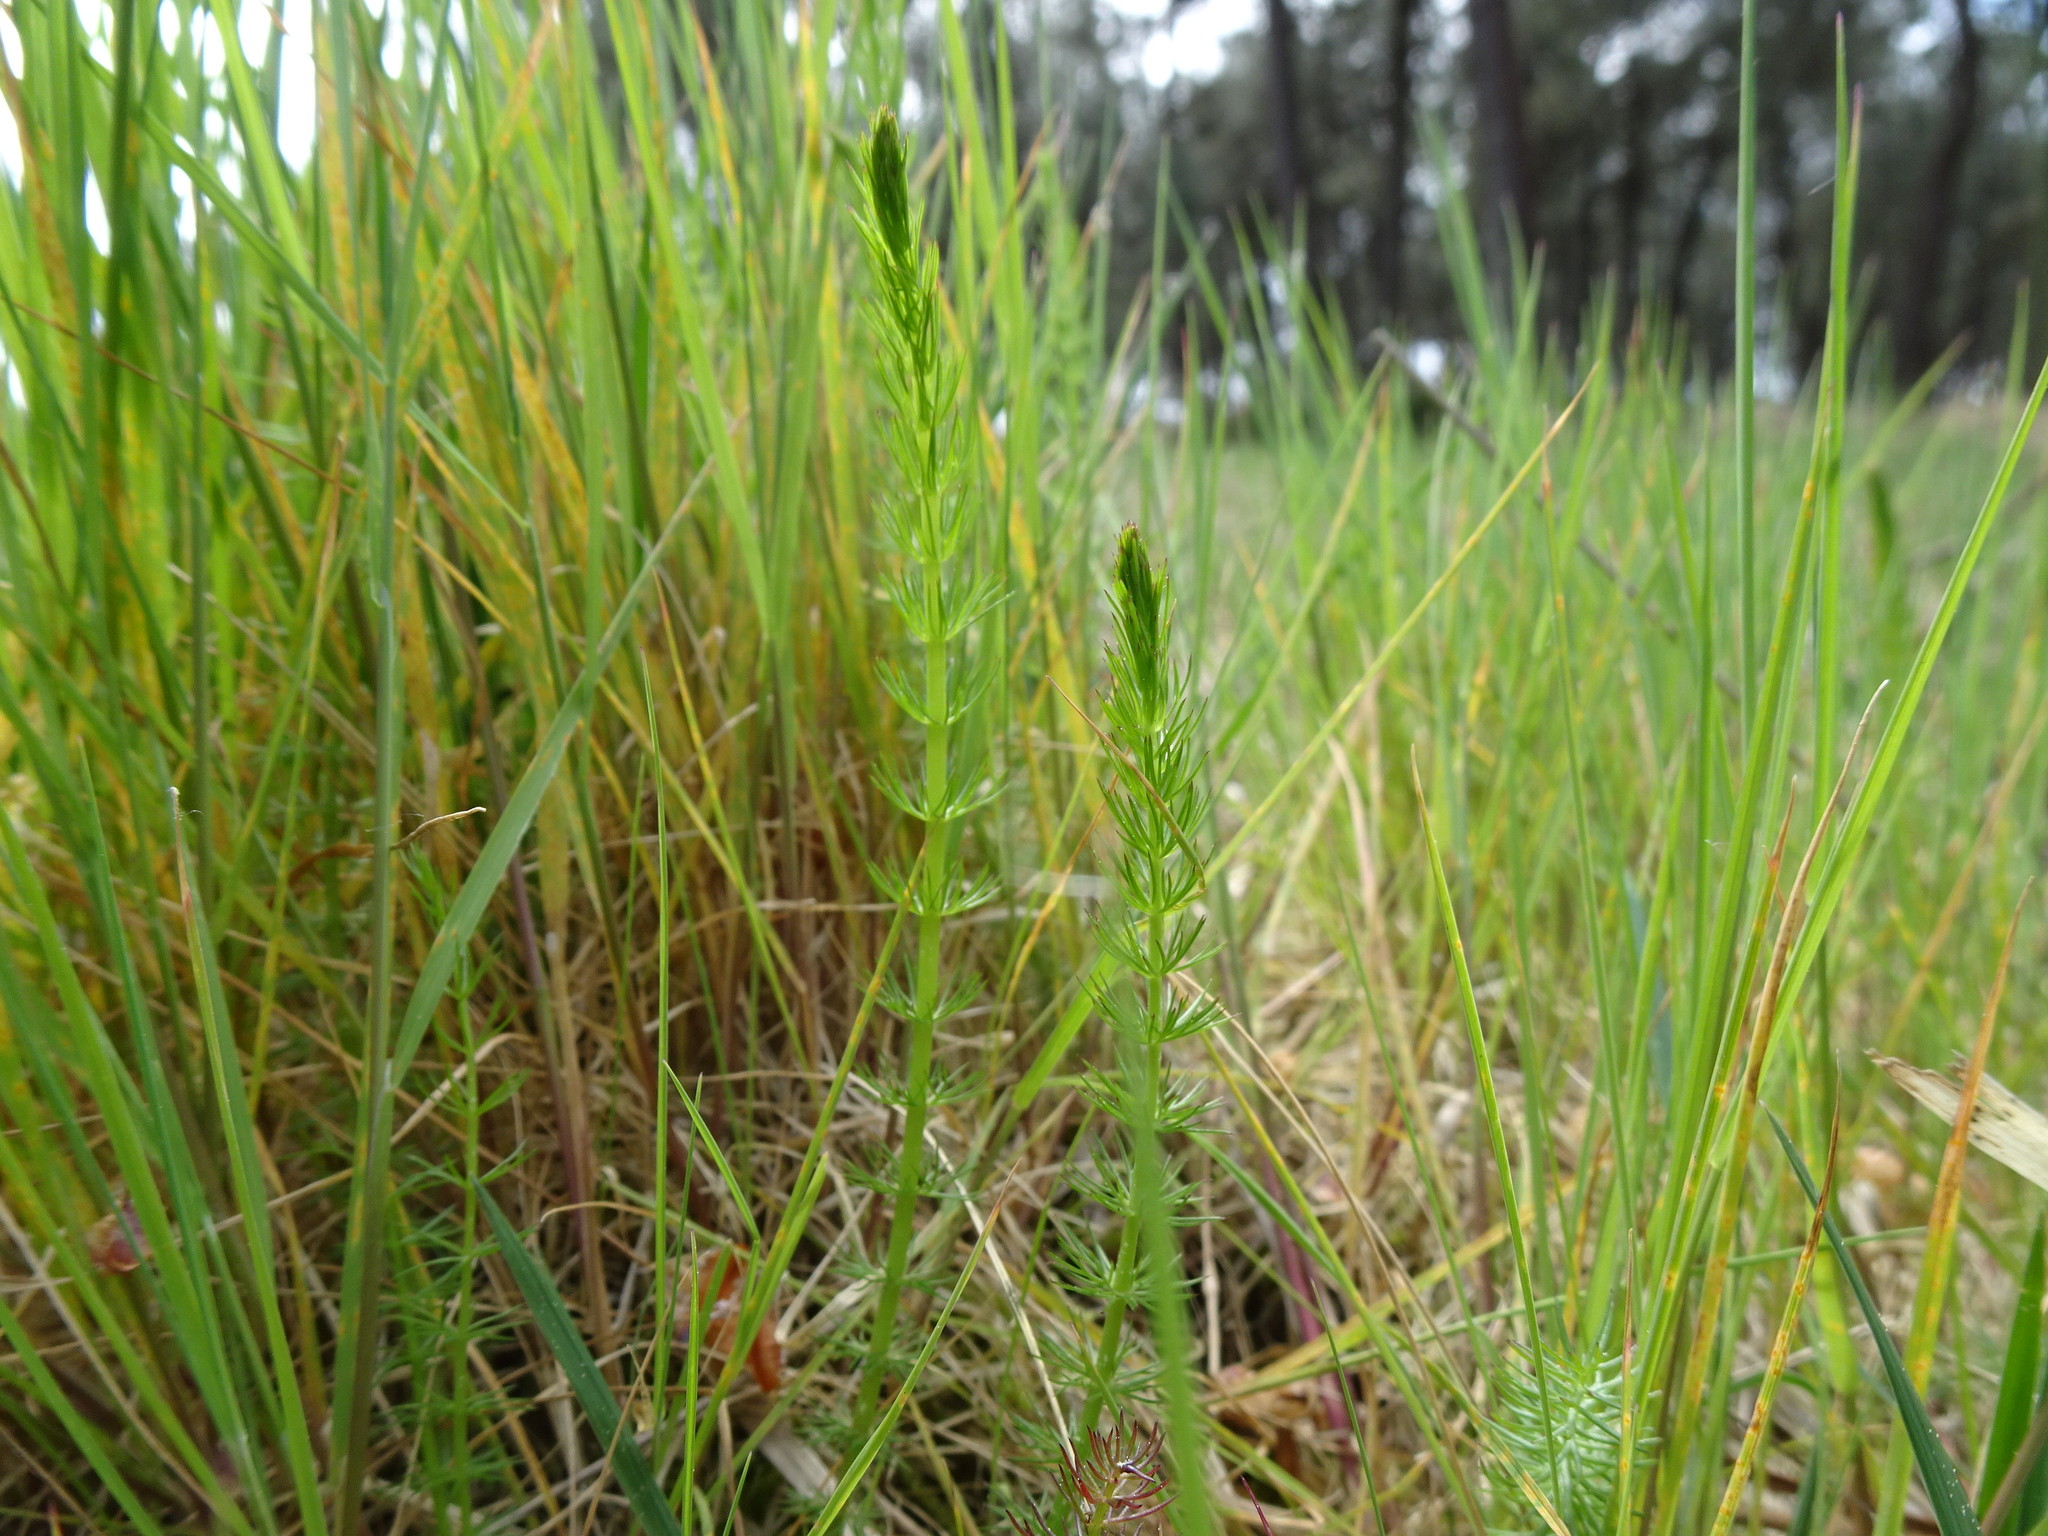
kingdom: Plantae
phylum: Tracheophyta
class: Magnoliopsida
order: Apiales
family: Apiaceae
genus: Trocdaris
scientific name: Trocdaris verticillatum
